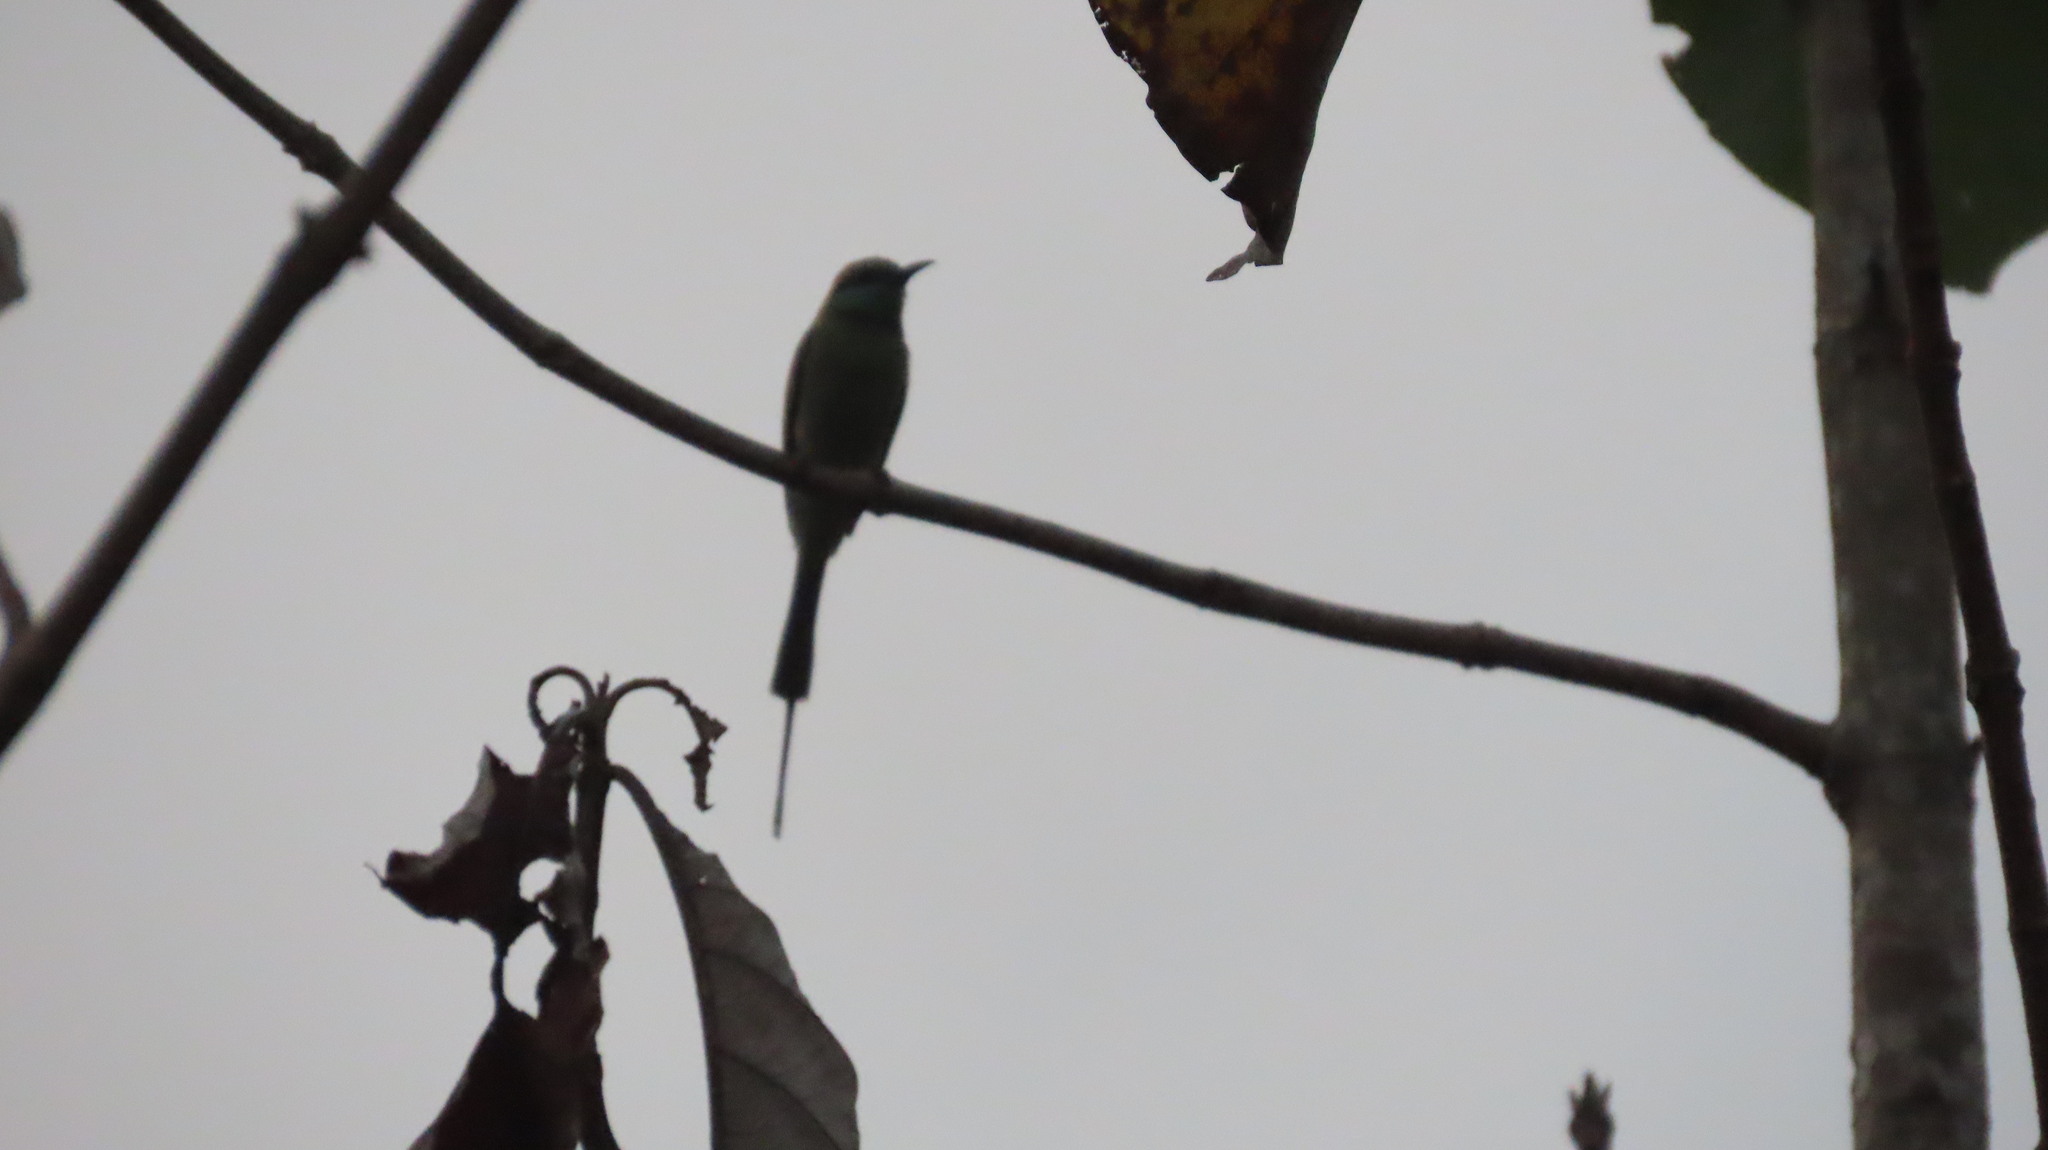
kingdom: Animalia
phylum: Chordata
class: Aves
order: Coraciiformes
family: Meropidae
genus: Merops
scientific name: Merops orientalis
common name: Green bee-eater
